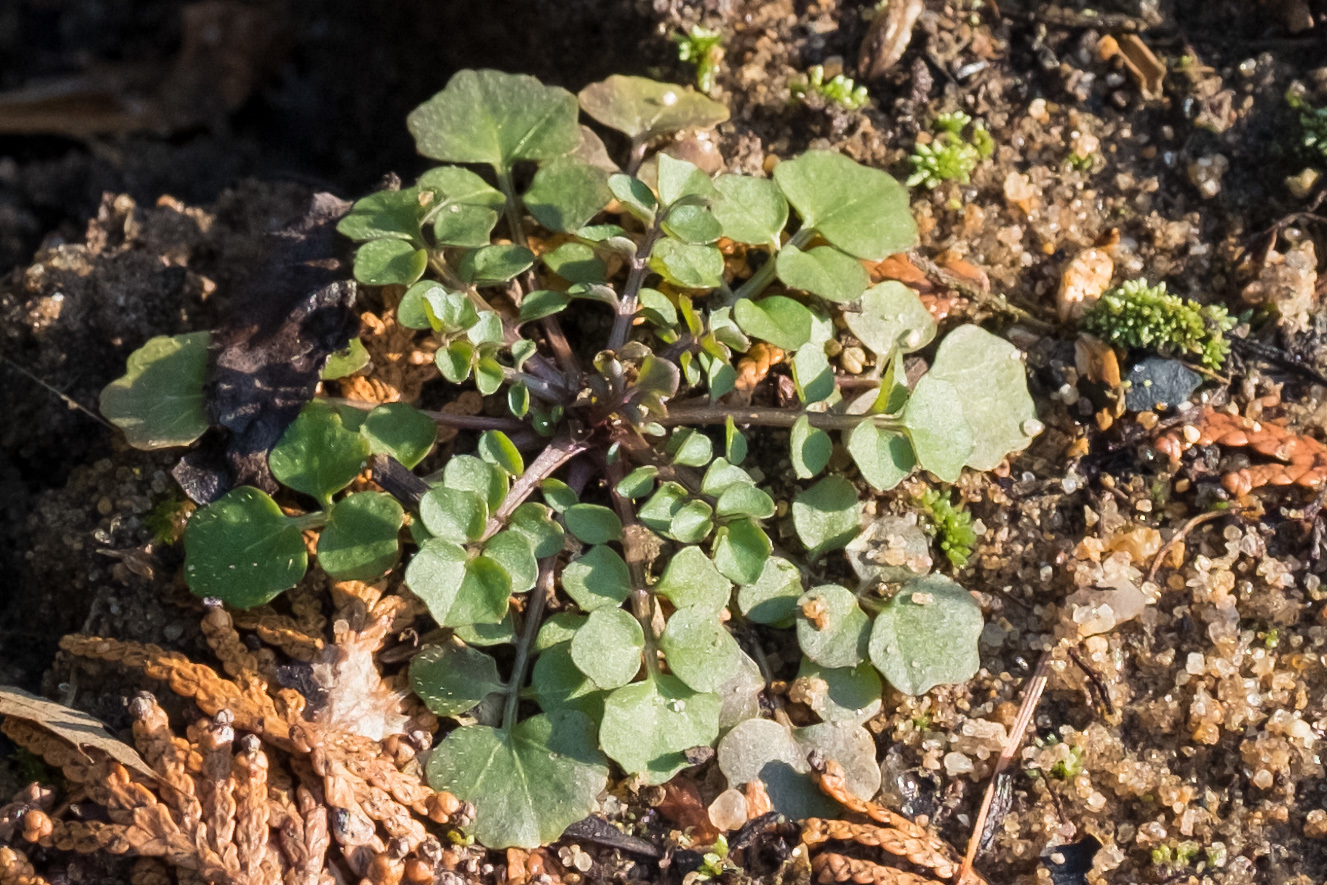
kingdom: Plantae
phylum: Tracheophyta
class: Magnoliopsida
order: Brassicales
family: Brassicaceae
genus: Cardamine
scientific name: Cardamine hirsuta
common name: Hairy bittercress
